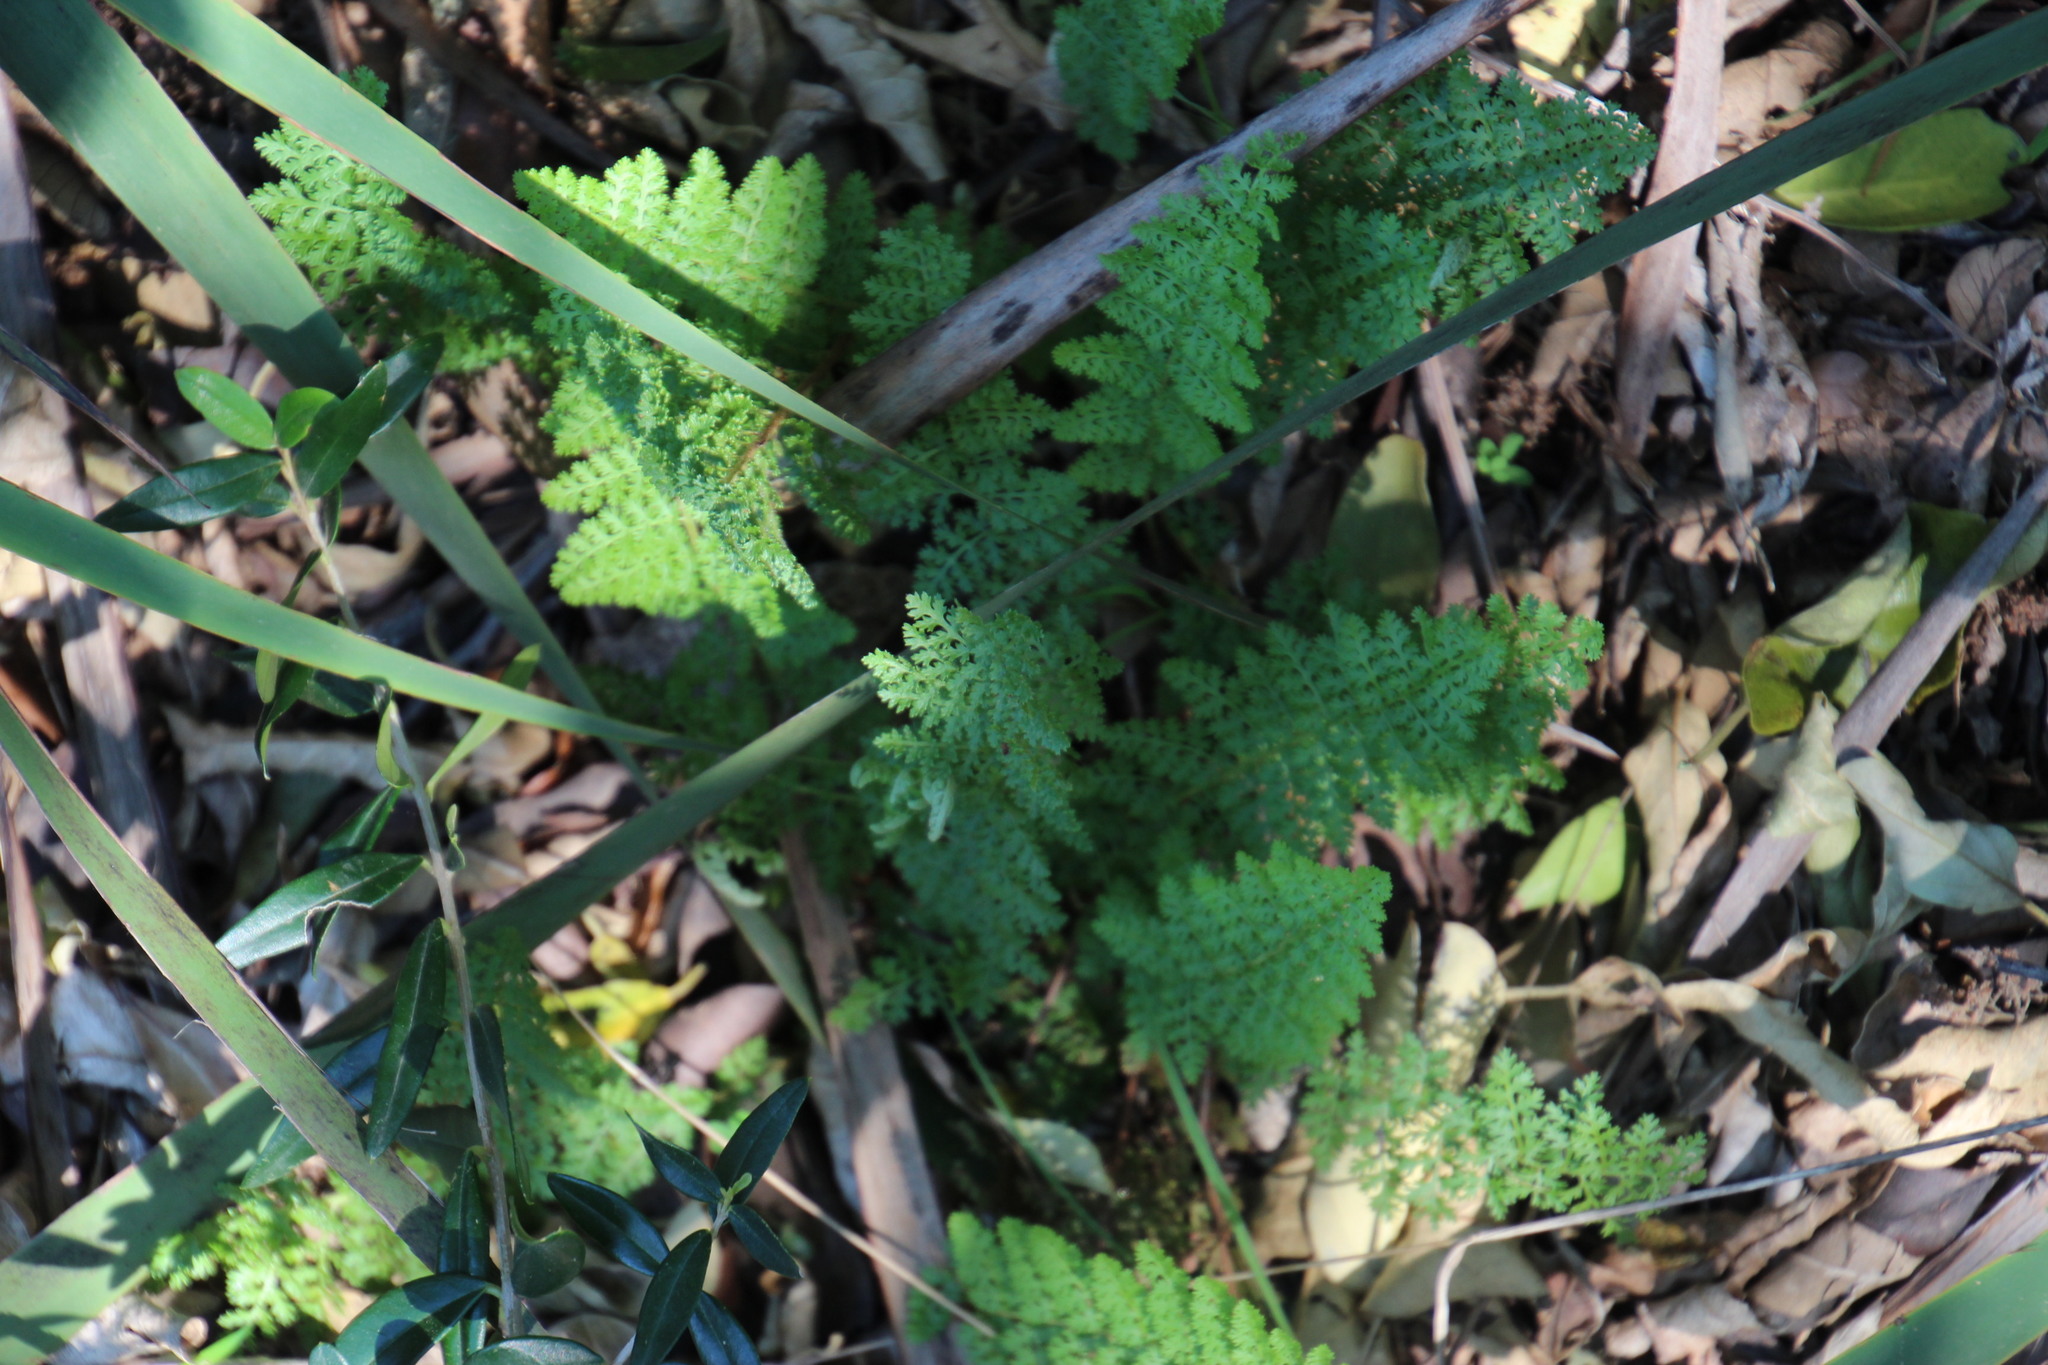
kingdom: Plantae
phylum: Tracheophyta
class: Polypodiopsida
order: Schizaeales
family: Anemiaceae
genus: Anemia
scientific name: Anemia caffrorum
